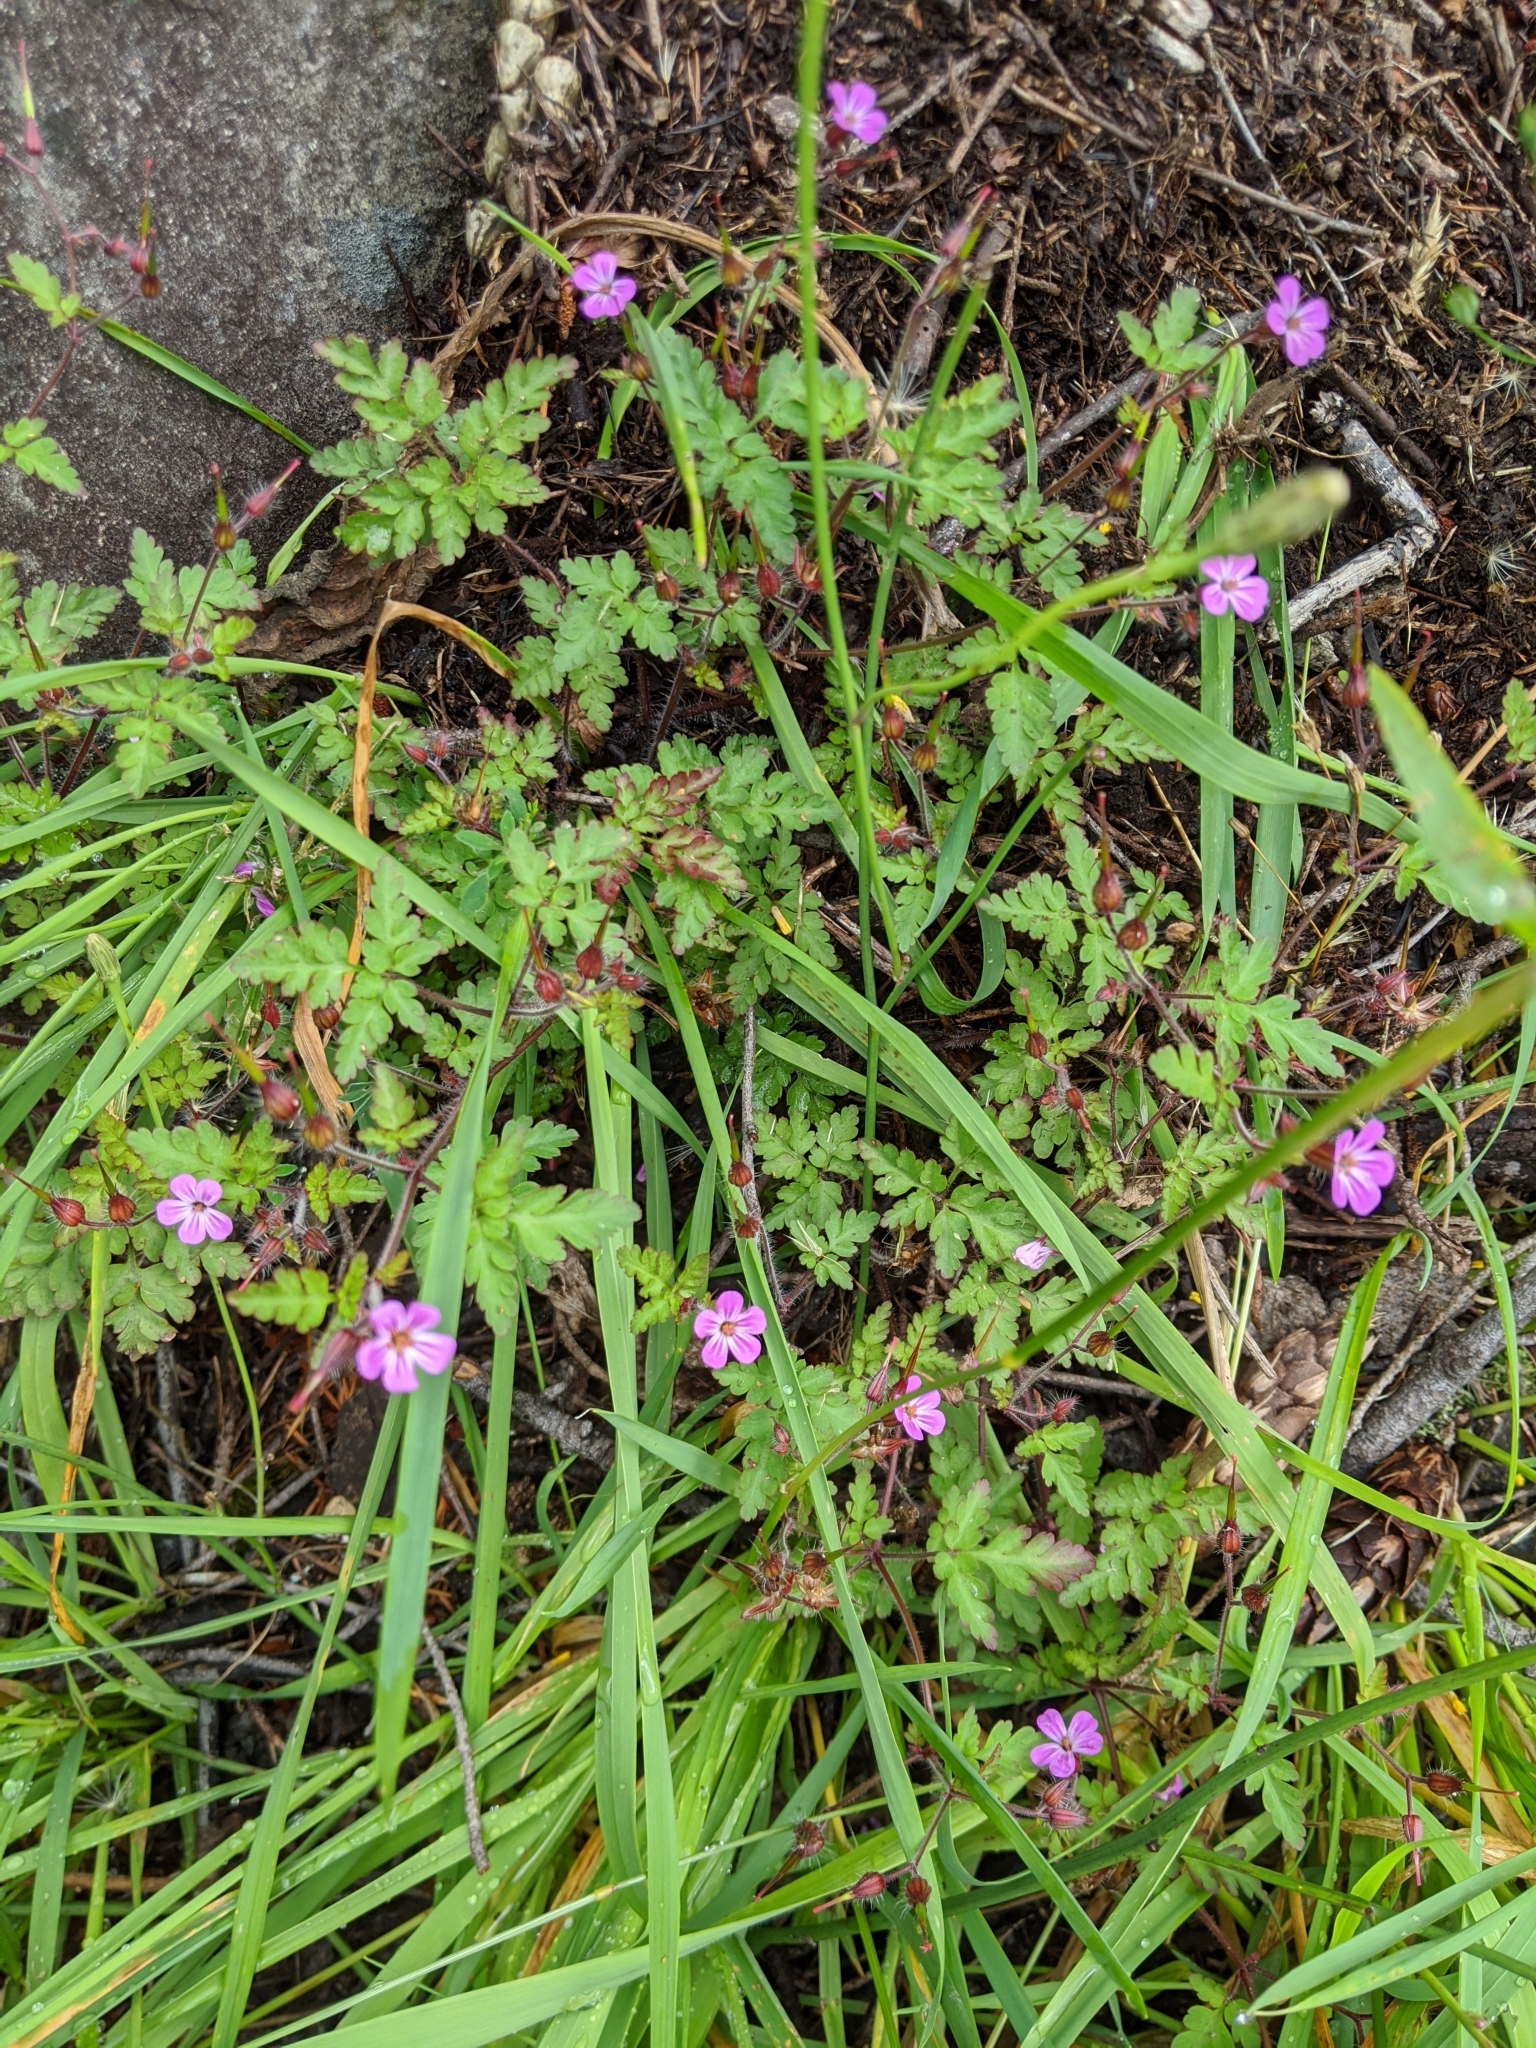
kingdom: Plantae
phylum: Tracheophyta
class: Magnoliopsida
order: Geraniales
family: Geraniaceae
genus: Geranium
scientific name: Geranium robertianum
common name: Herb-robert
